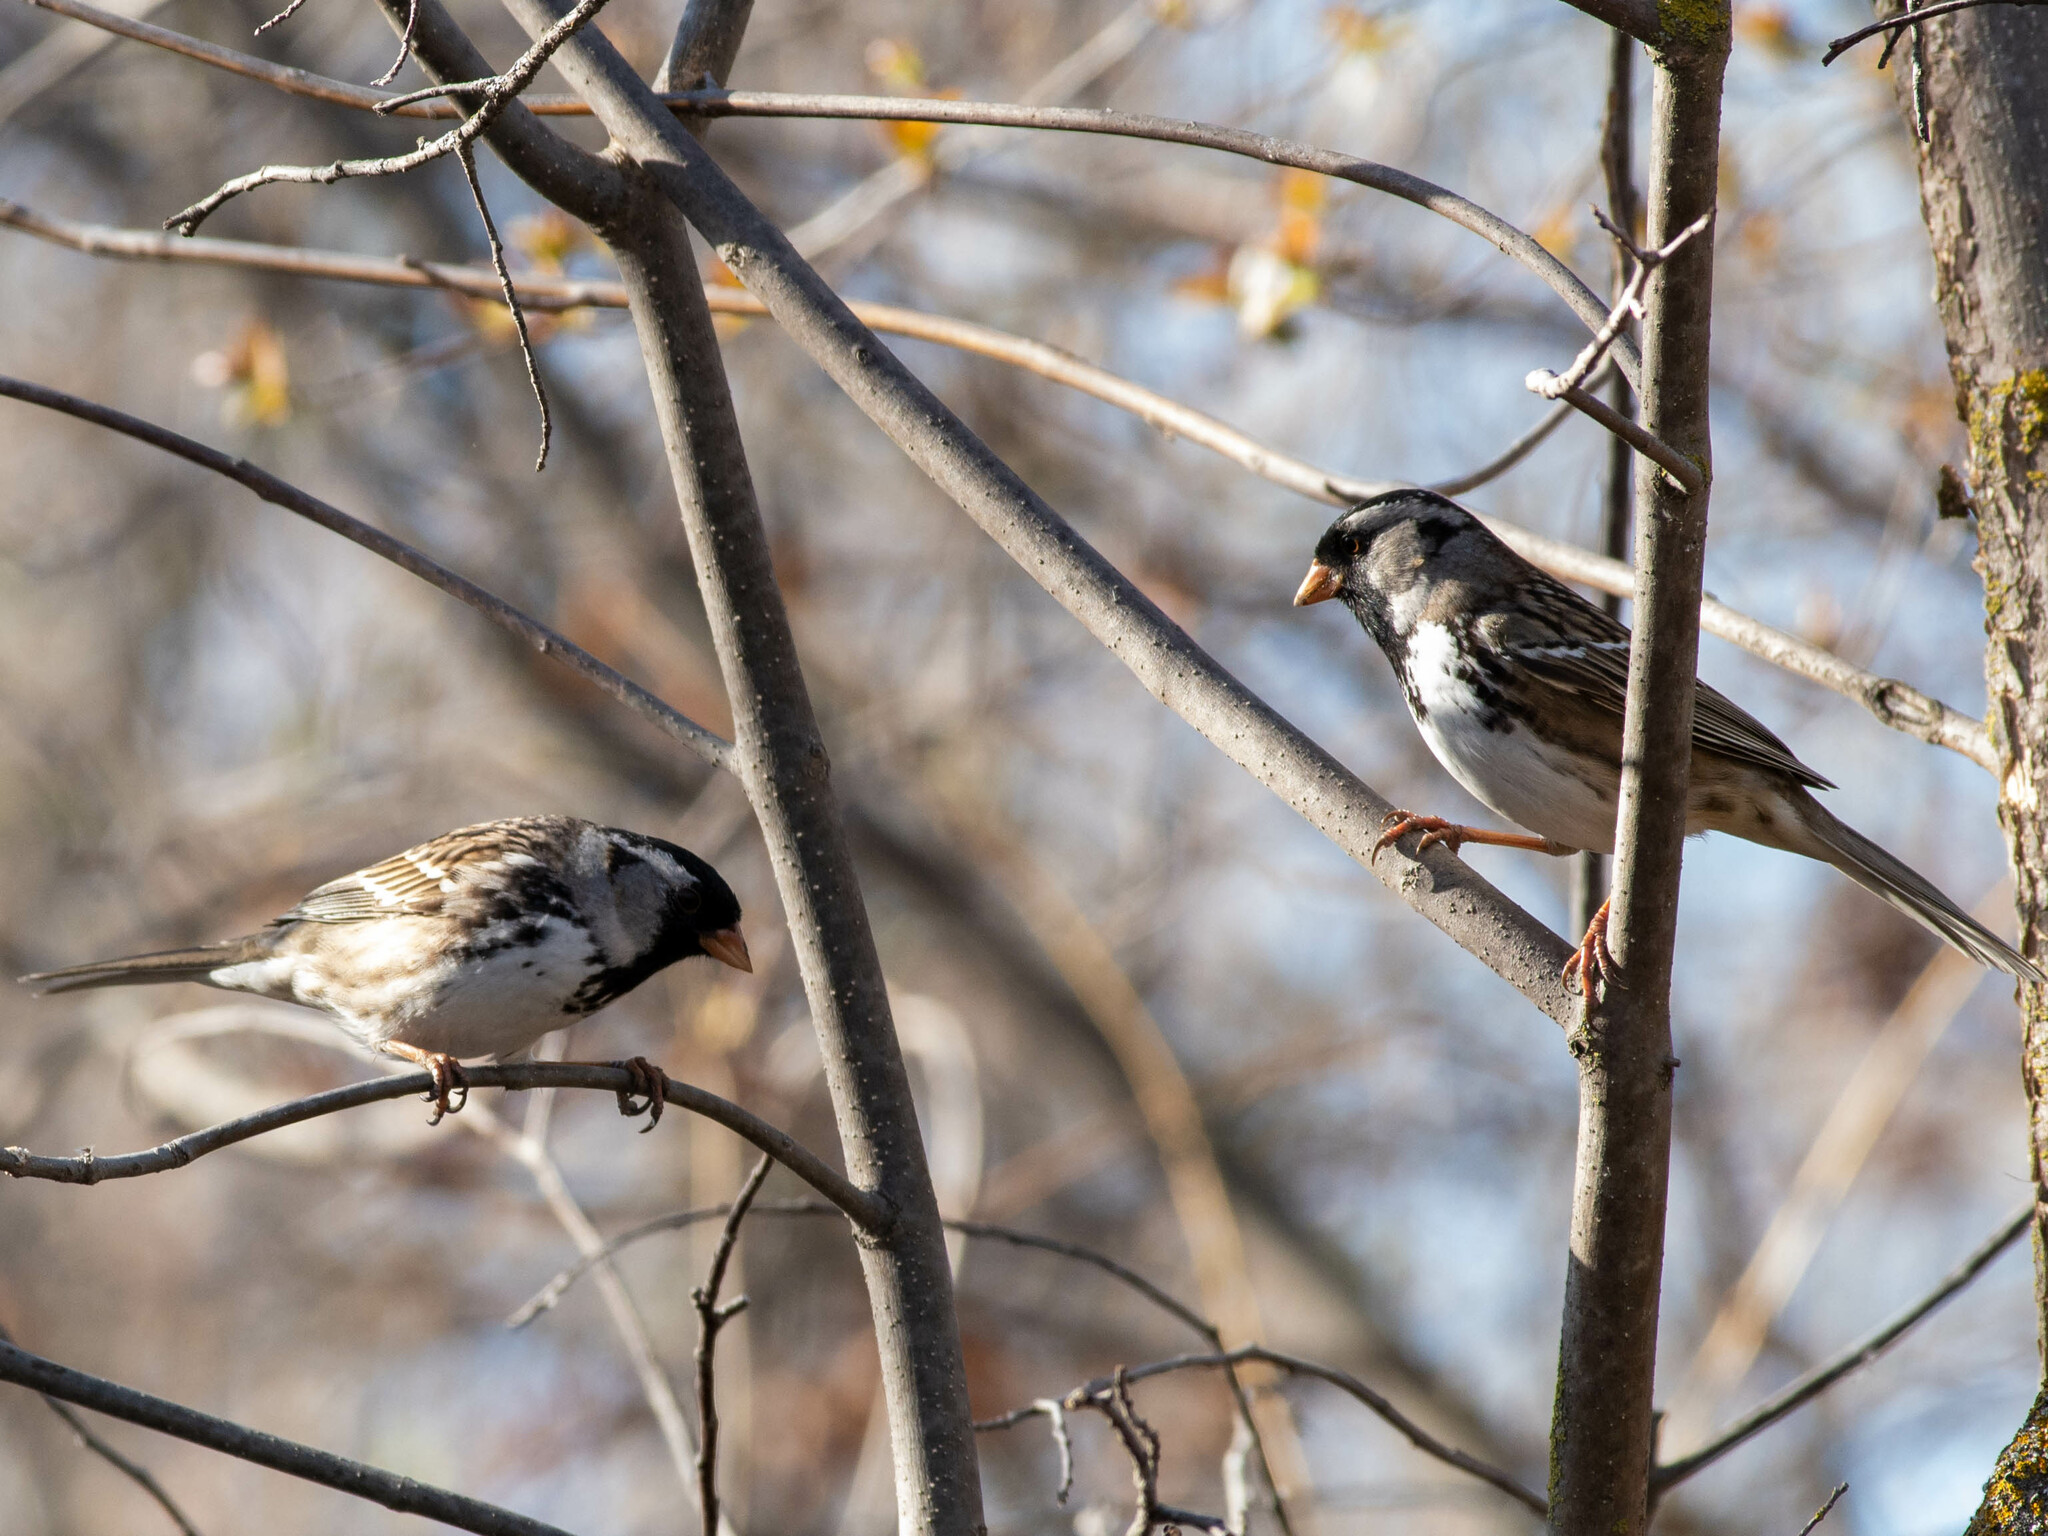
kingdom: Animalia
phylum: Chordata
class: Aves
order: Passeriformes
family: Passerellidae
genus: Zonotrichia
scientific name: Zonotrichia querula
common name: Harris's sparrow
